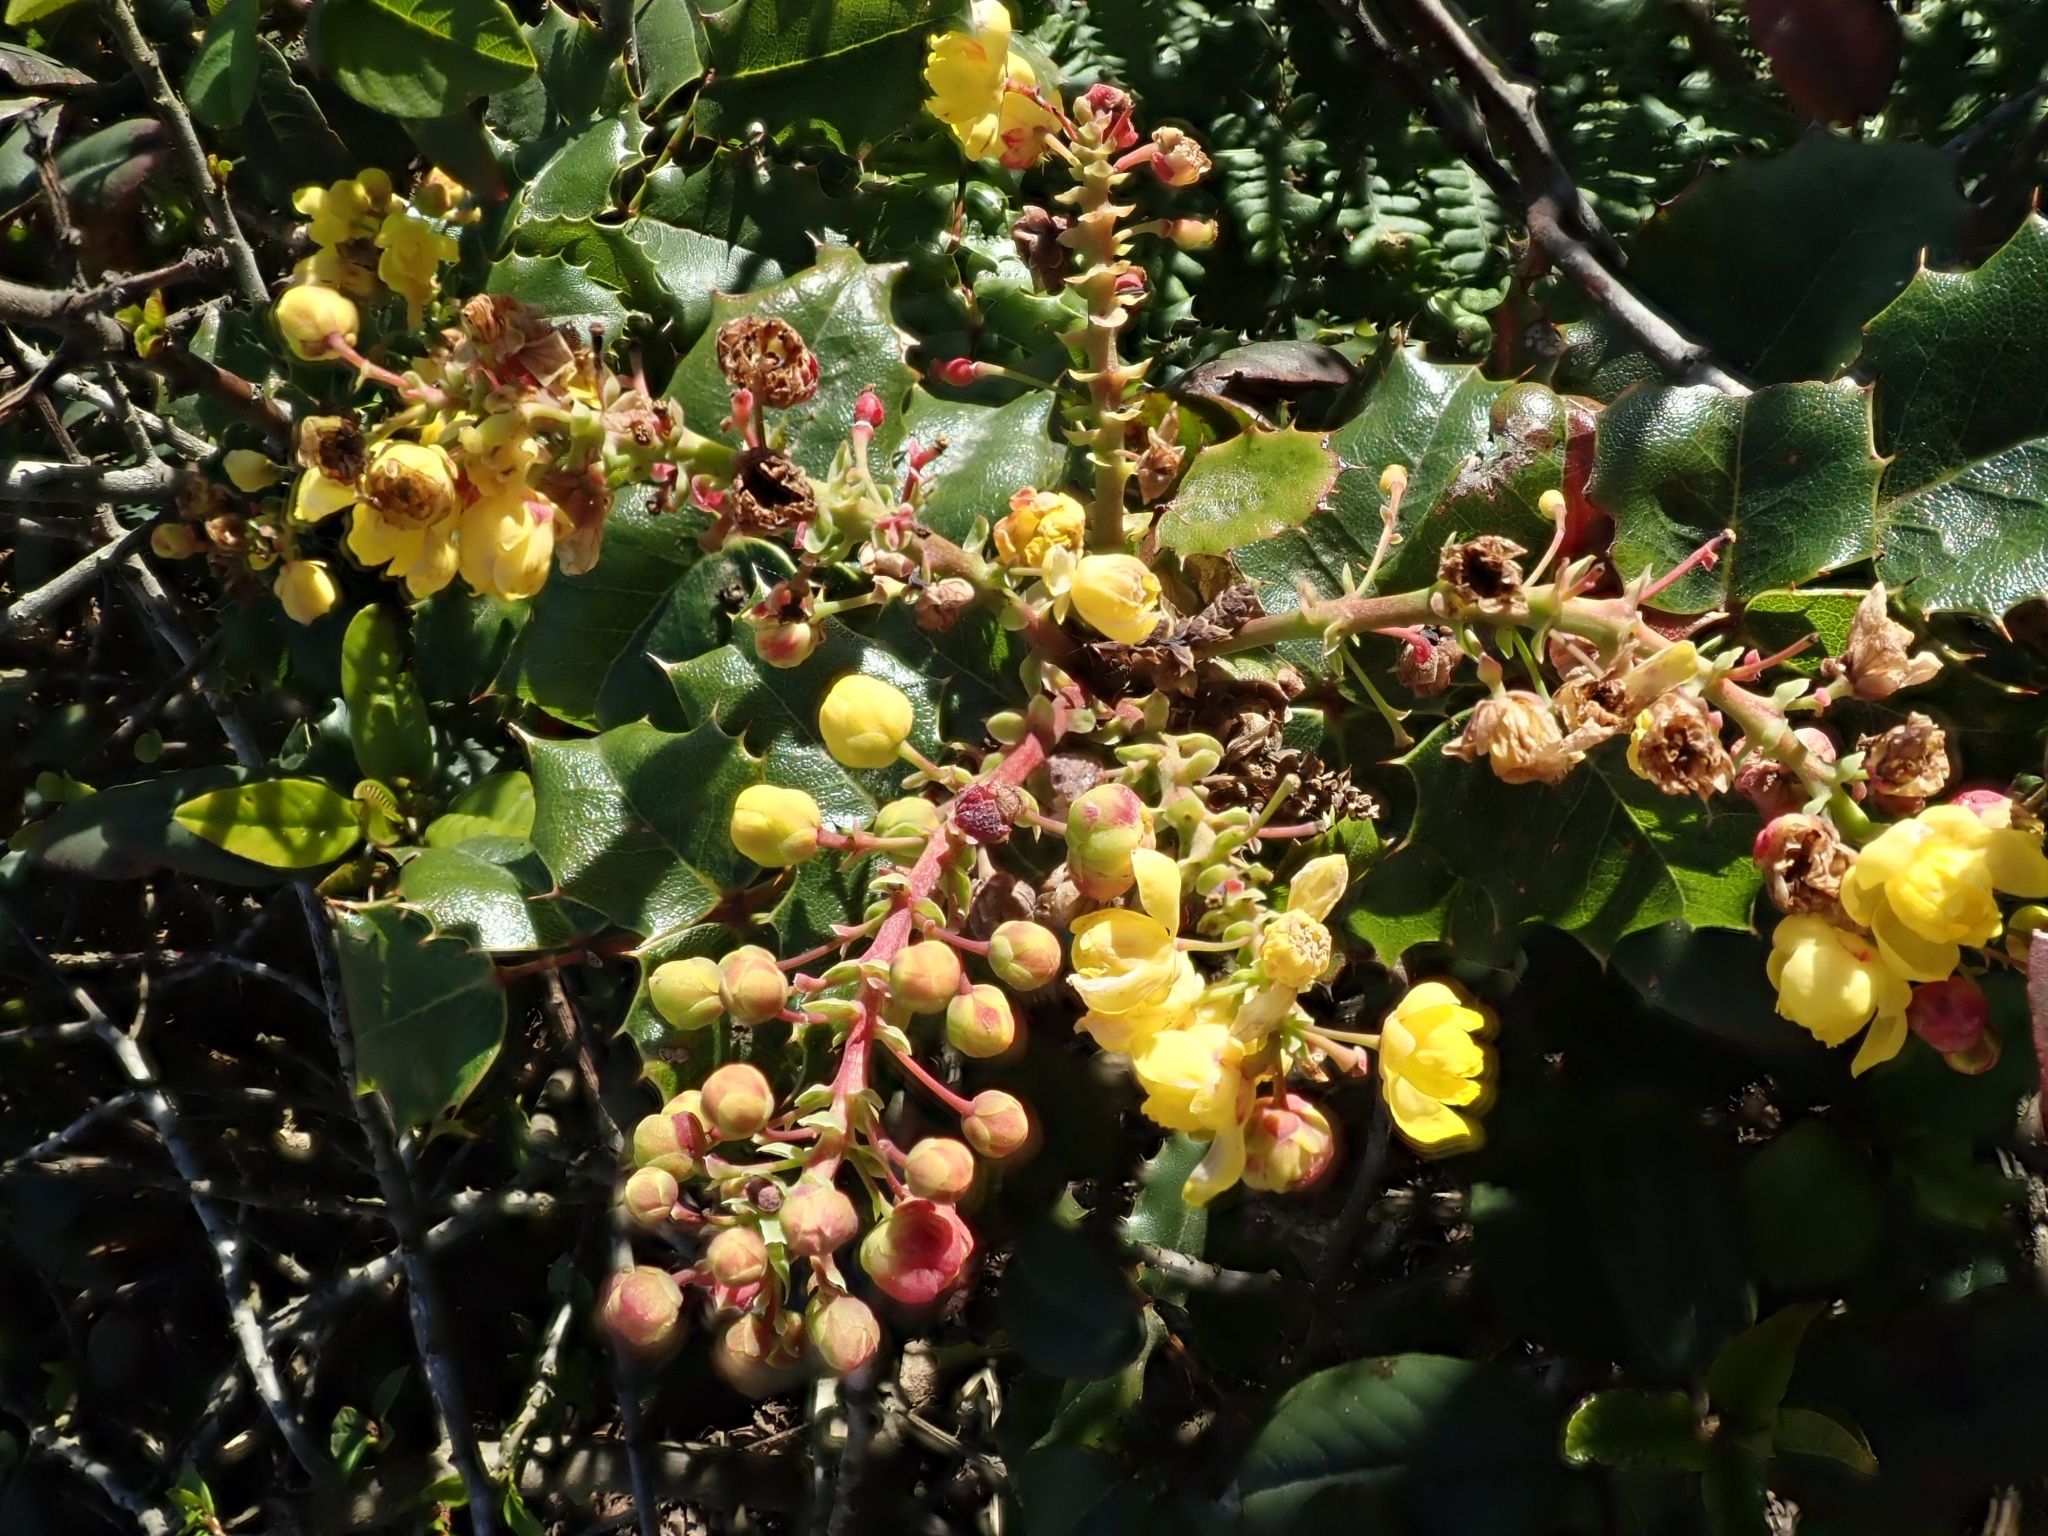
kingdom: Plantae
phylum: Tracheophyta
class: Magnoliopsida
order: Ranunculales
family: Berberidaceae
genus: Mahonia
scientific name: Mahonia
